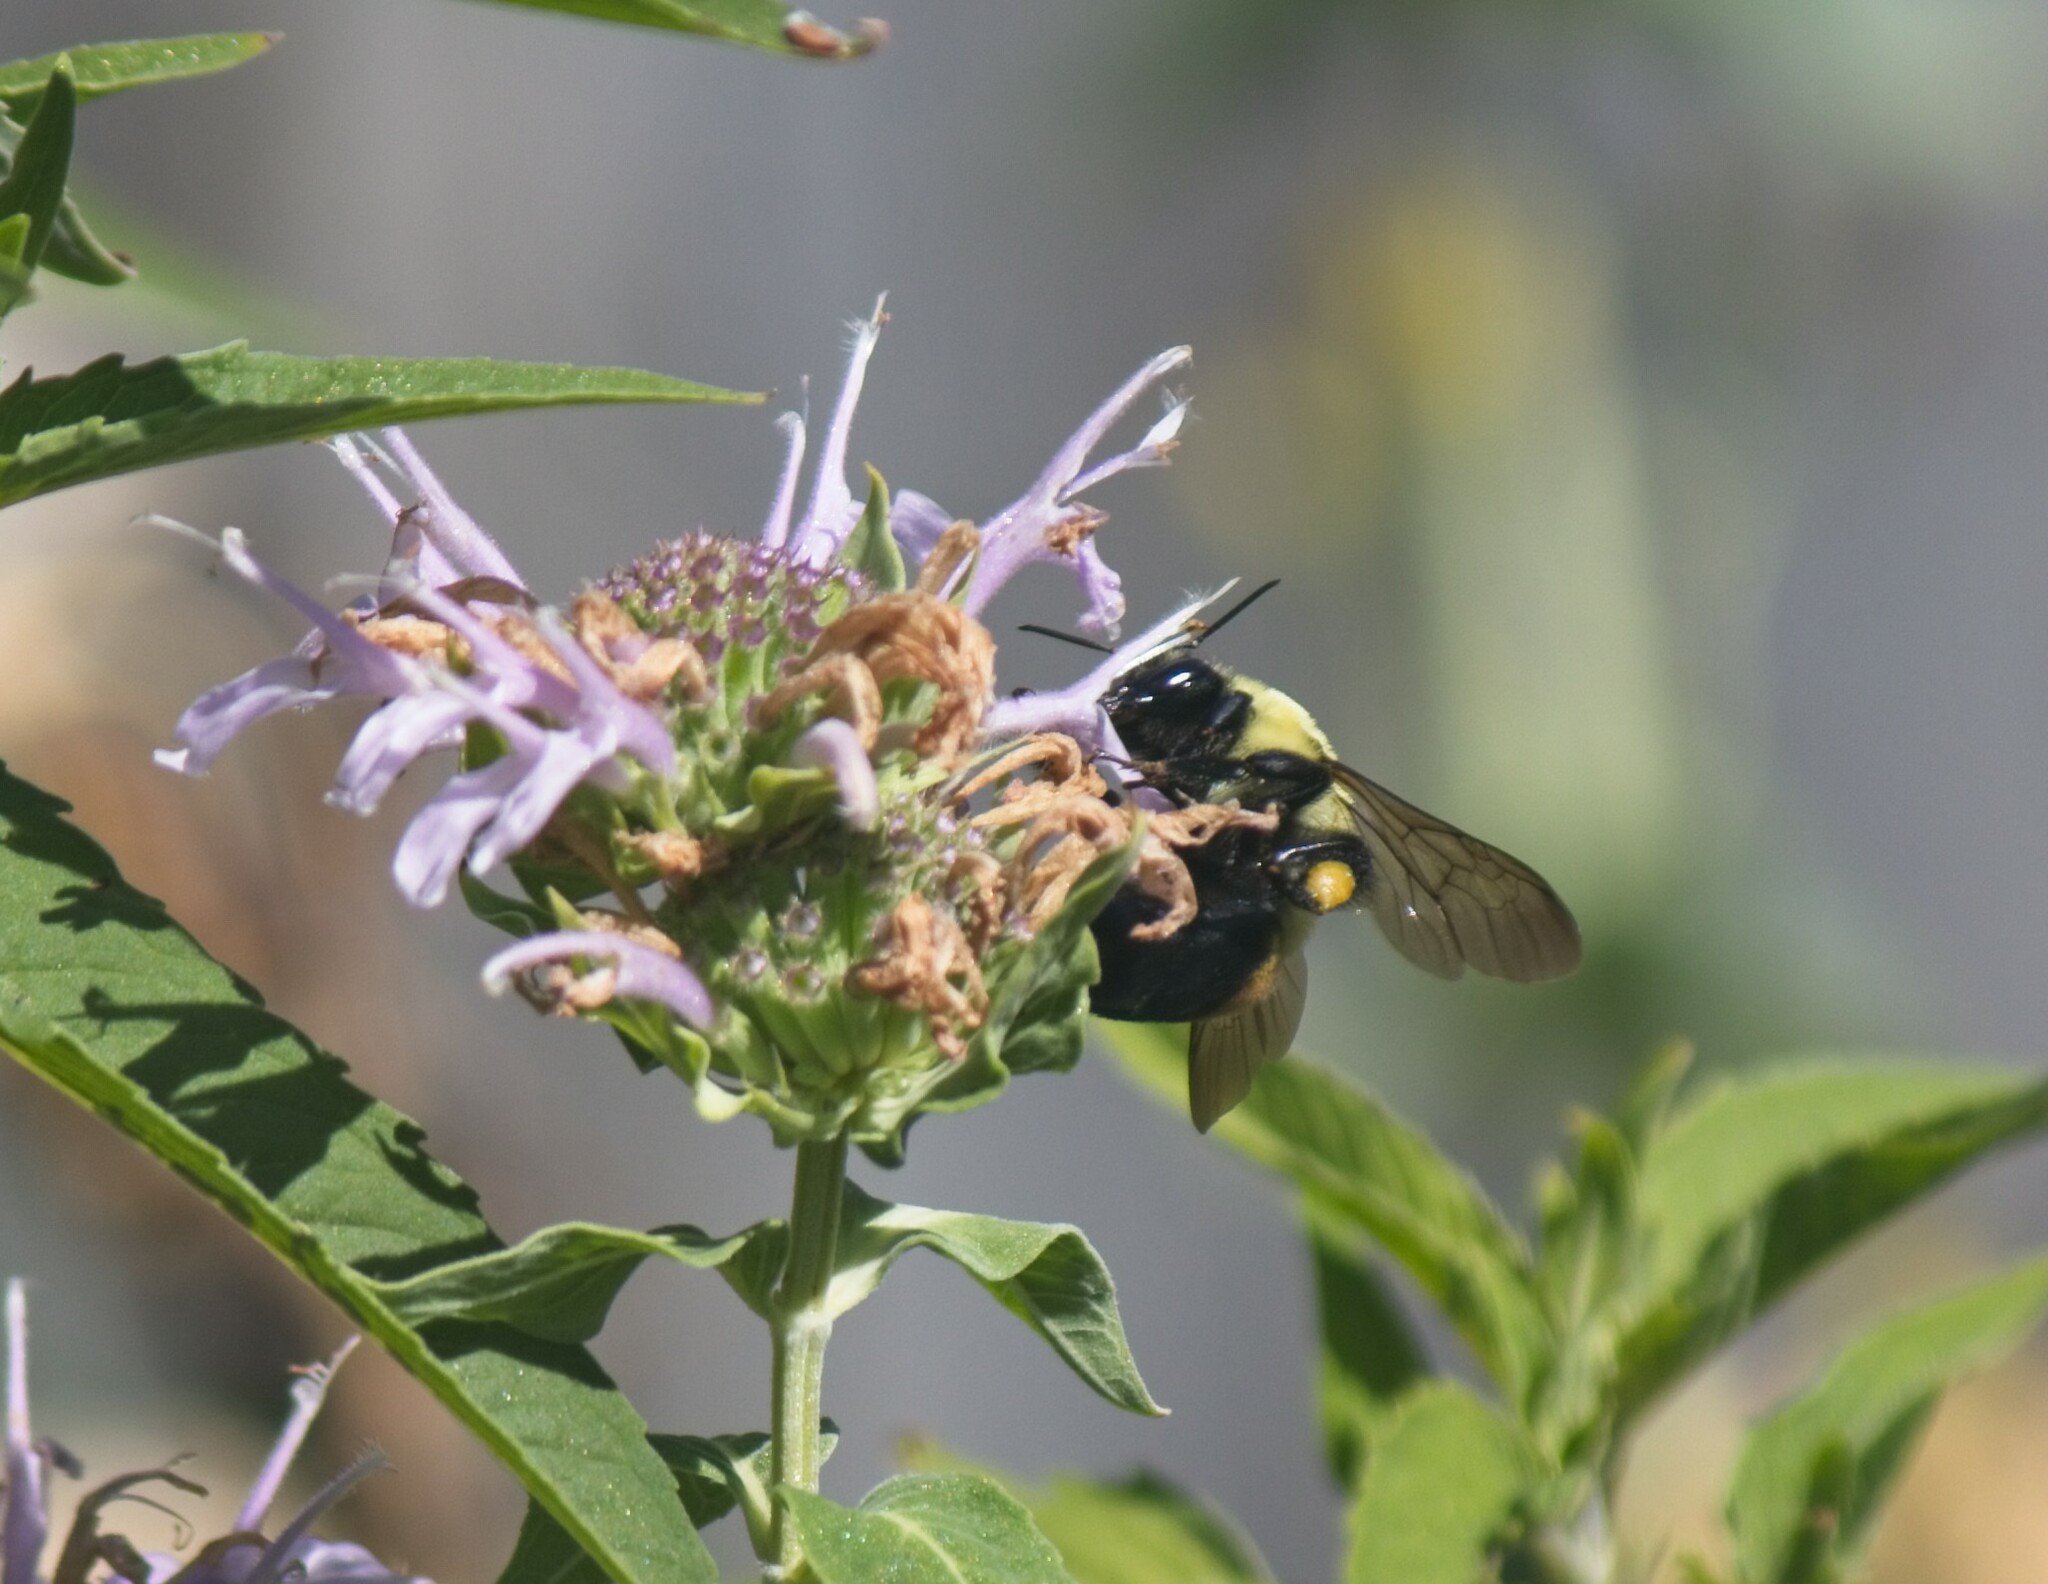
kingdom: Animalia
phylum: Arthropoda
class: Insecta
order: Hymenoptera
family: Apidae
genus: Bombus
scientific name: Bombus griseocollis
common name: Brown-belted bumble bee
